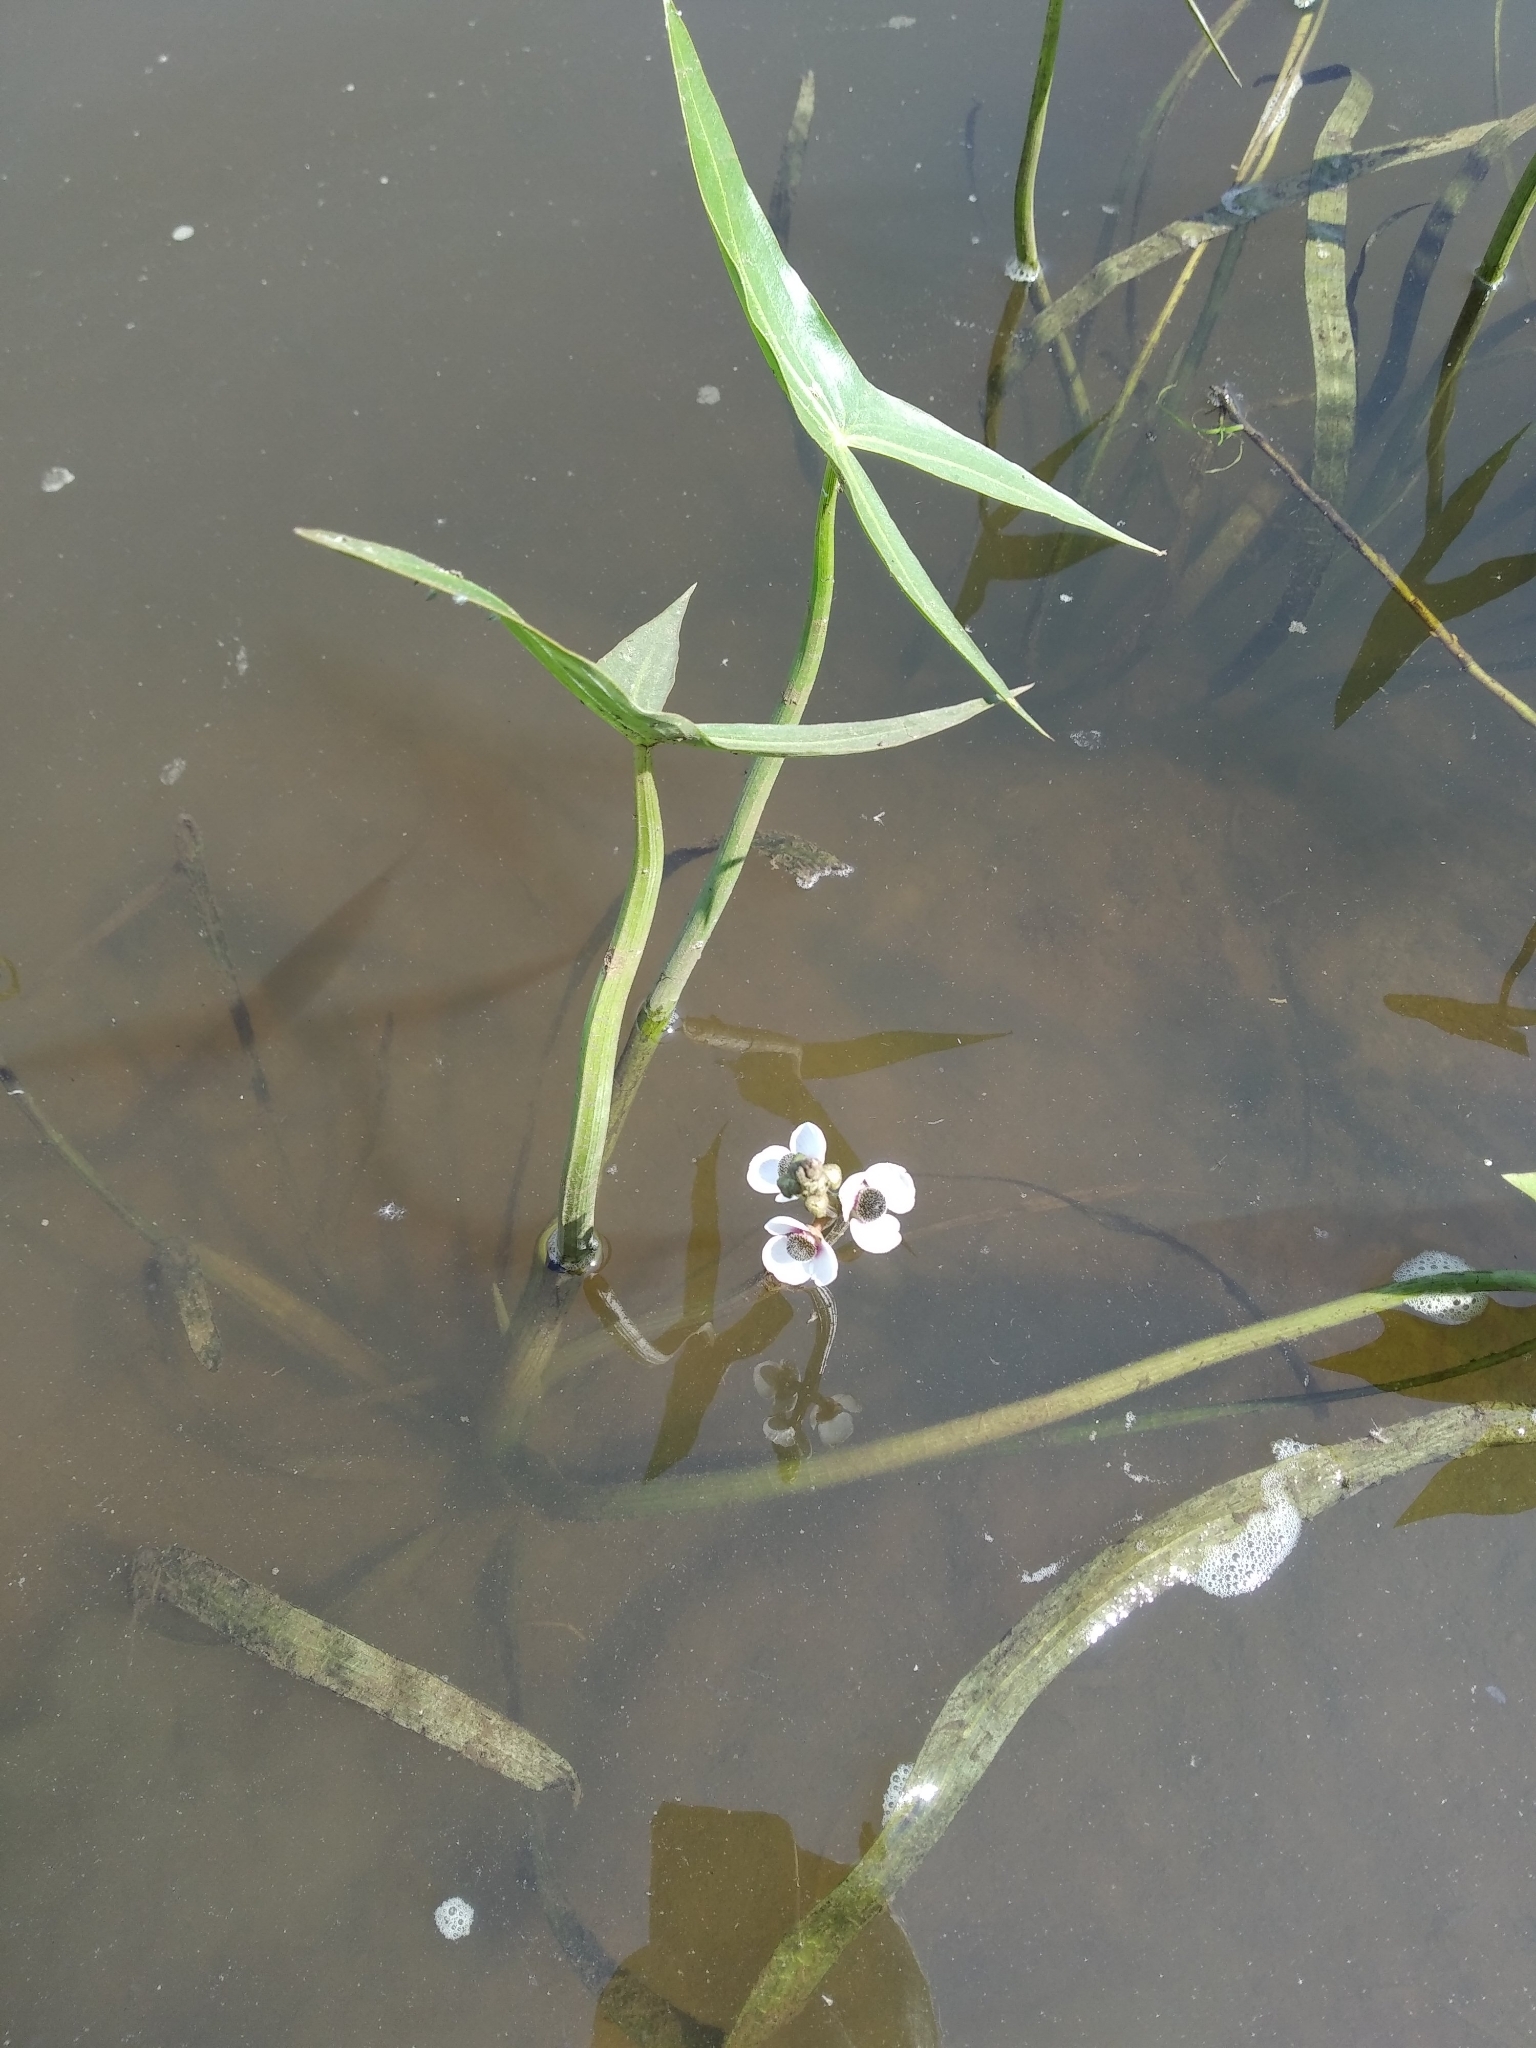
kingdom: Plantae
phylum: Tracheophyta
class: Liliopsida
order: Alismatales
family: Alismataceae
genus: Sagittaria
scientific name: Sagittaria sagittifolia
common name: Arrowhead
